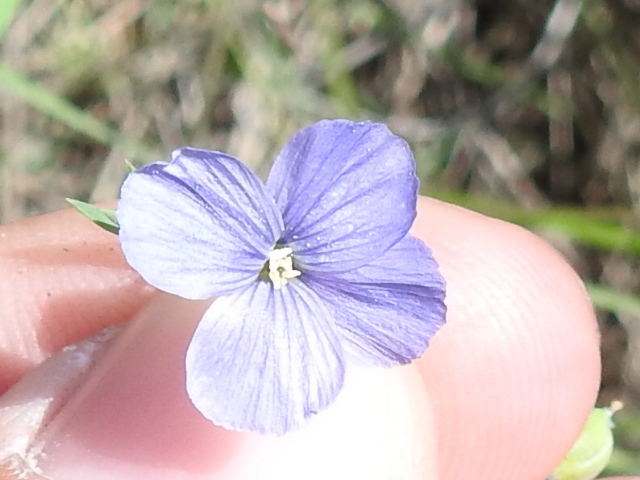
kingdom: Plantae
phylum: Tracheophyta
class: Magnoliopsida
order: Malpighiales
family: Linaceae
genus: Linum
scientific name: Linum pratense
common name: Norton's flax
